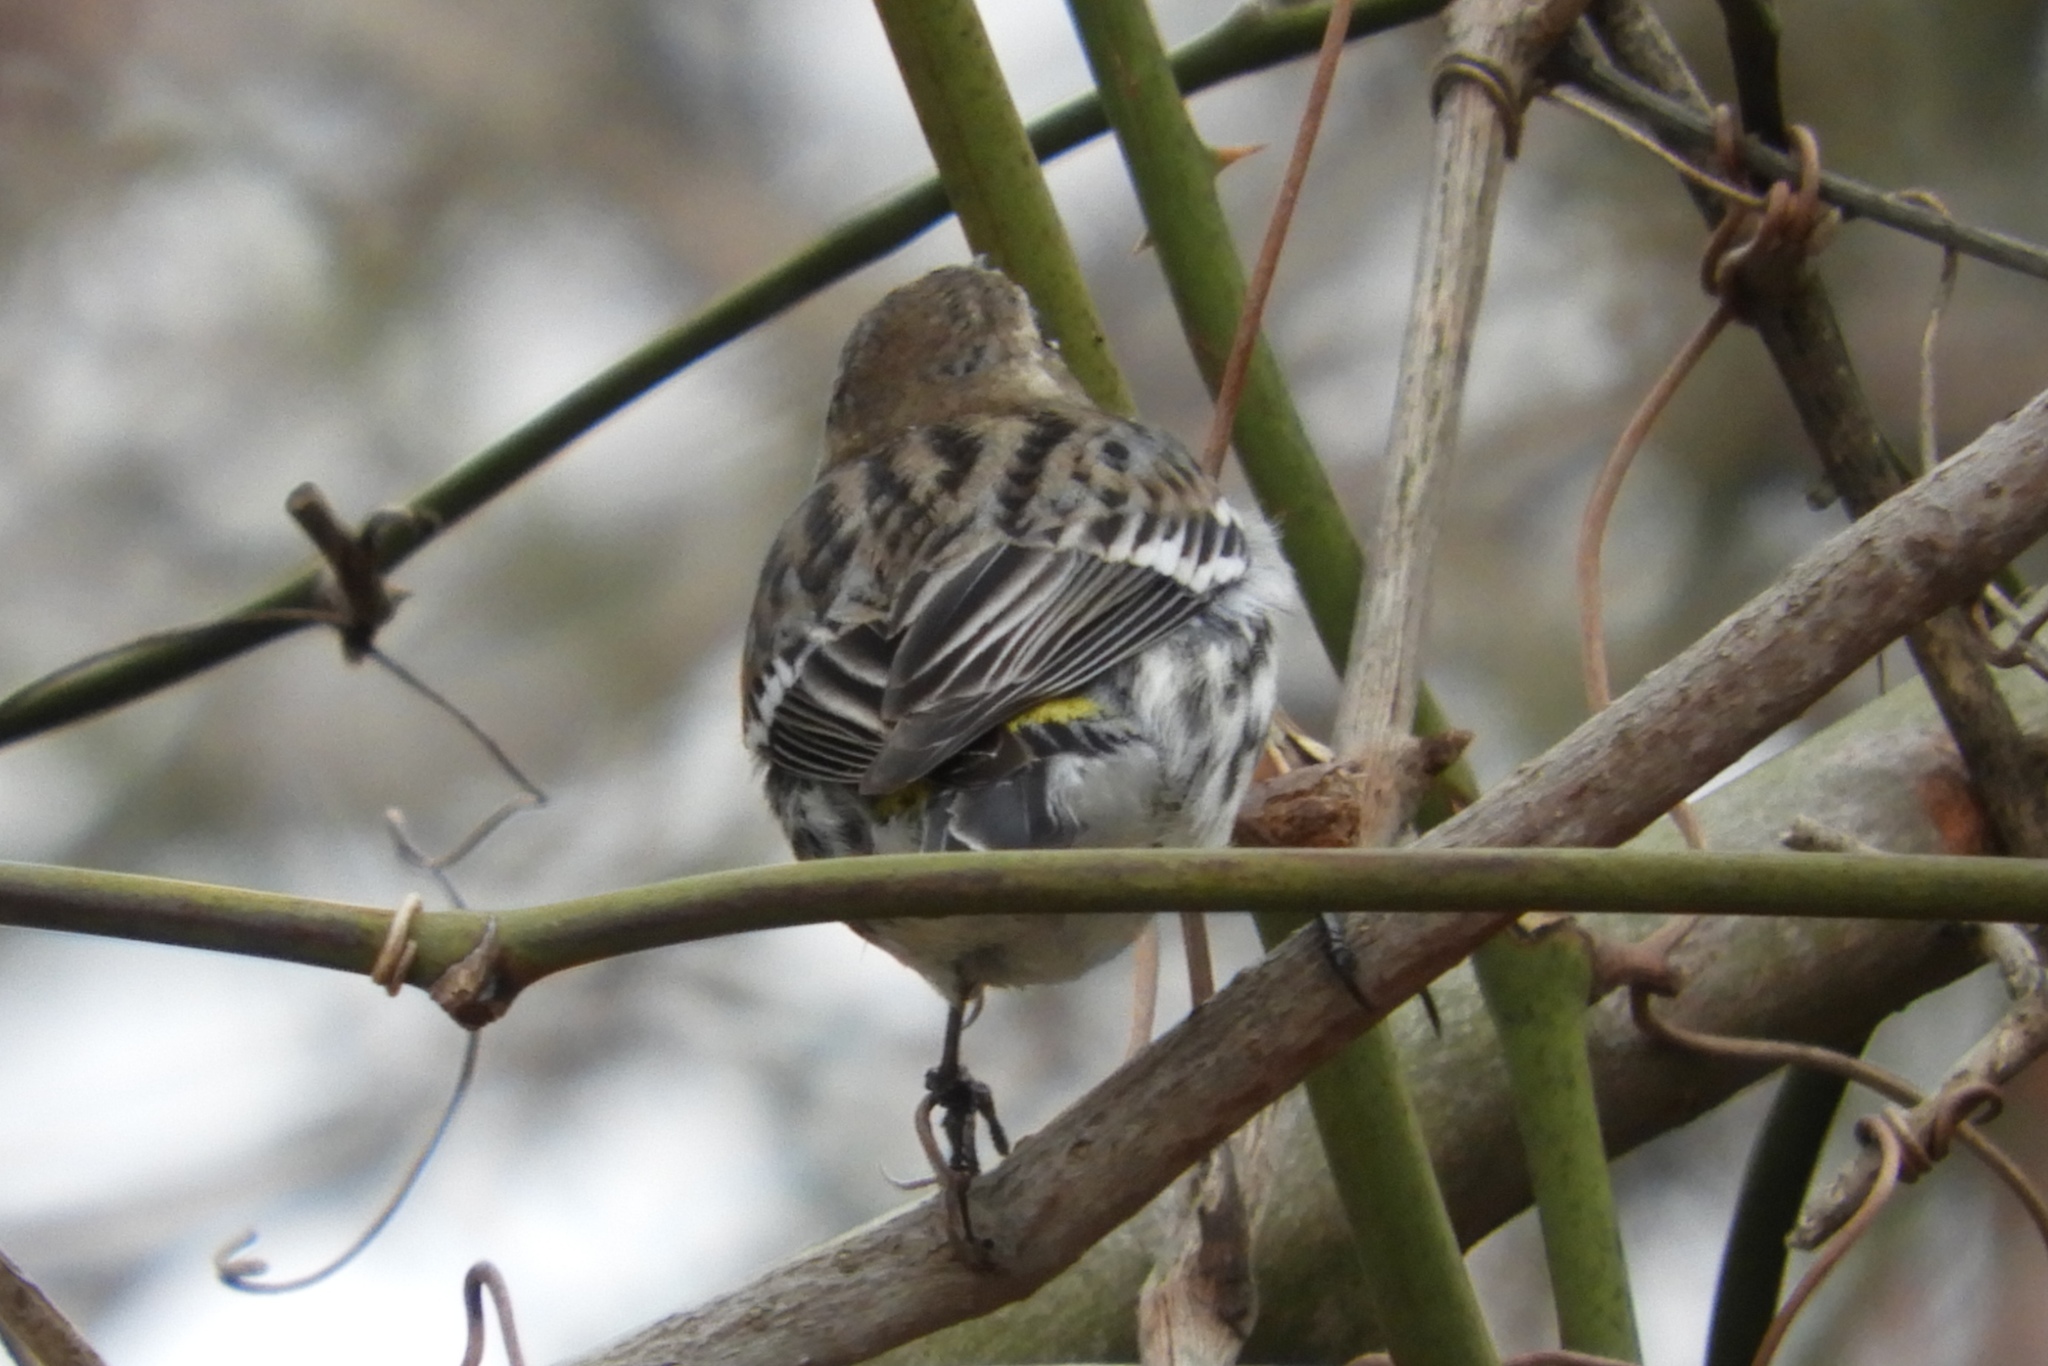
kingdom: Animalia
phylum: Chordata
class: Aves
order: Passeriformes
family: Parulidae
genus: Setophaga
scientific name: Setophaga coronata
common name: Myrtle warbler
